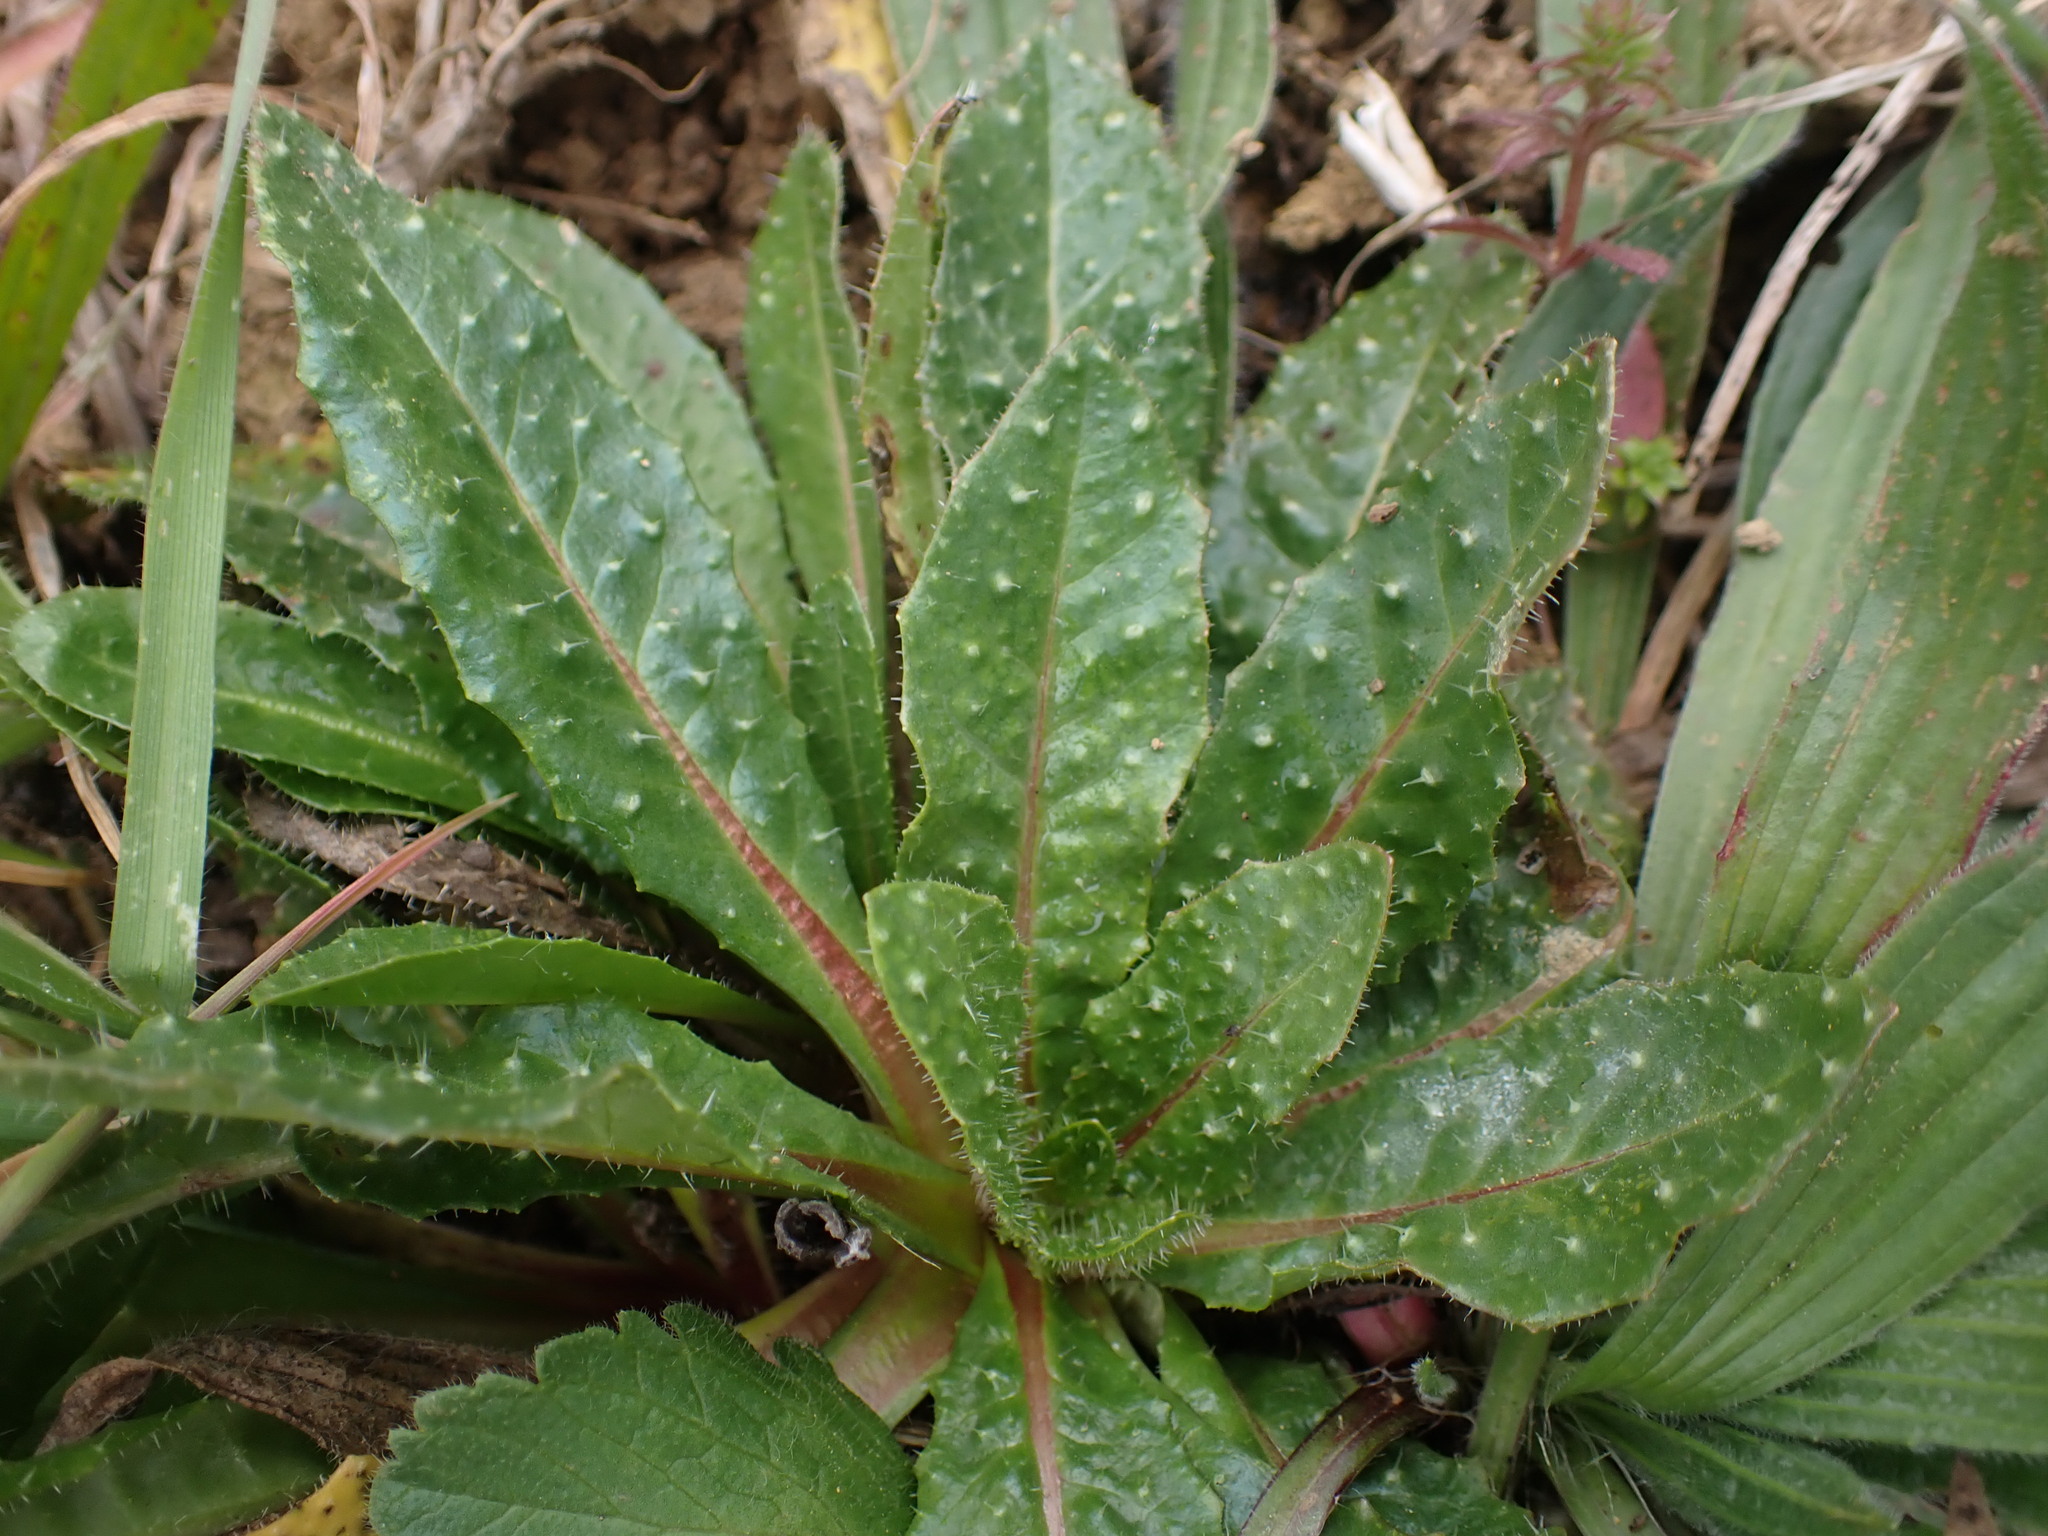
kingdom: Plantae
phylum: Tracheophyta
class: Magnoliopsida
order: Asterales
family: Asteraceae
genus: Helminthotheca
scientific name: Helminthotheca echioides
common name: Ox-tongue
